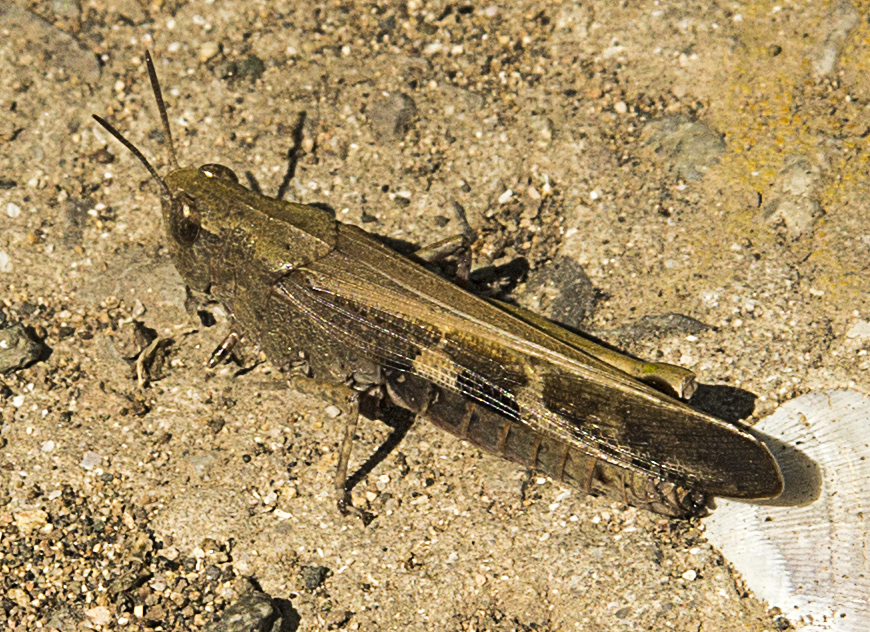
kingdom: Animalia
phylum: Arthropoda
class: Insecta
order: Orthoptera
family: Acrididae
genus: Aiolopus
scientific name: Aiolopus strepens
